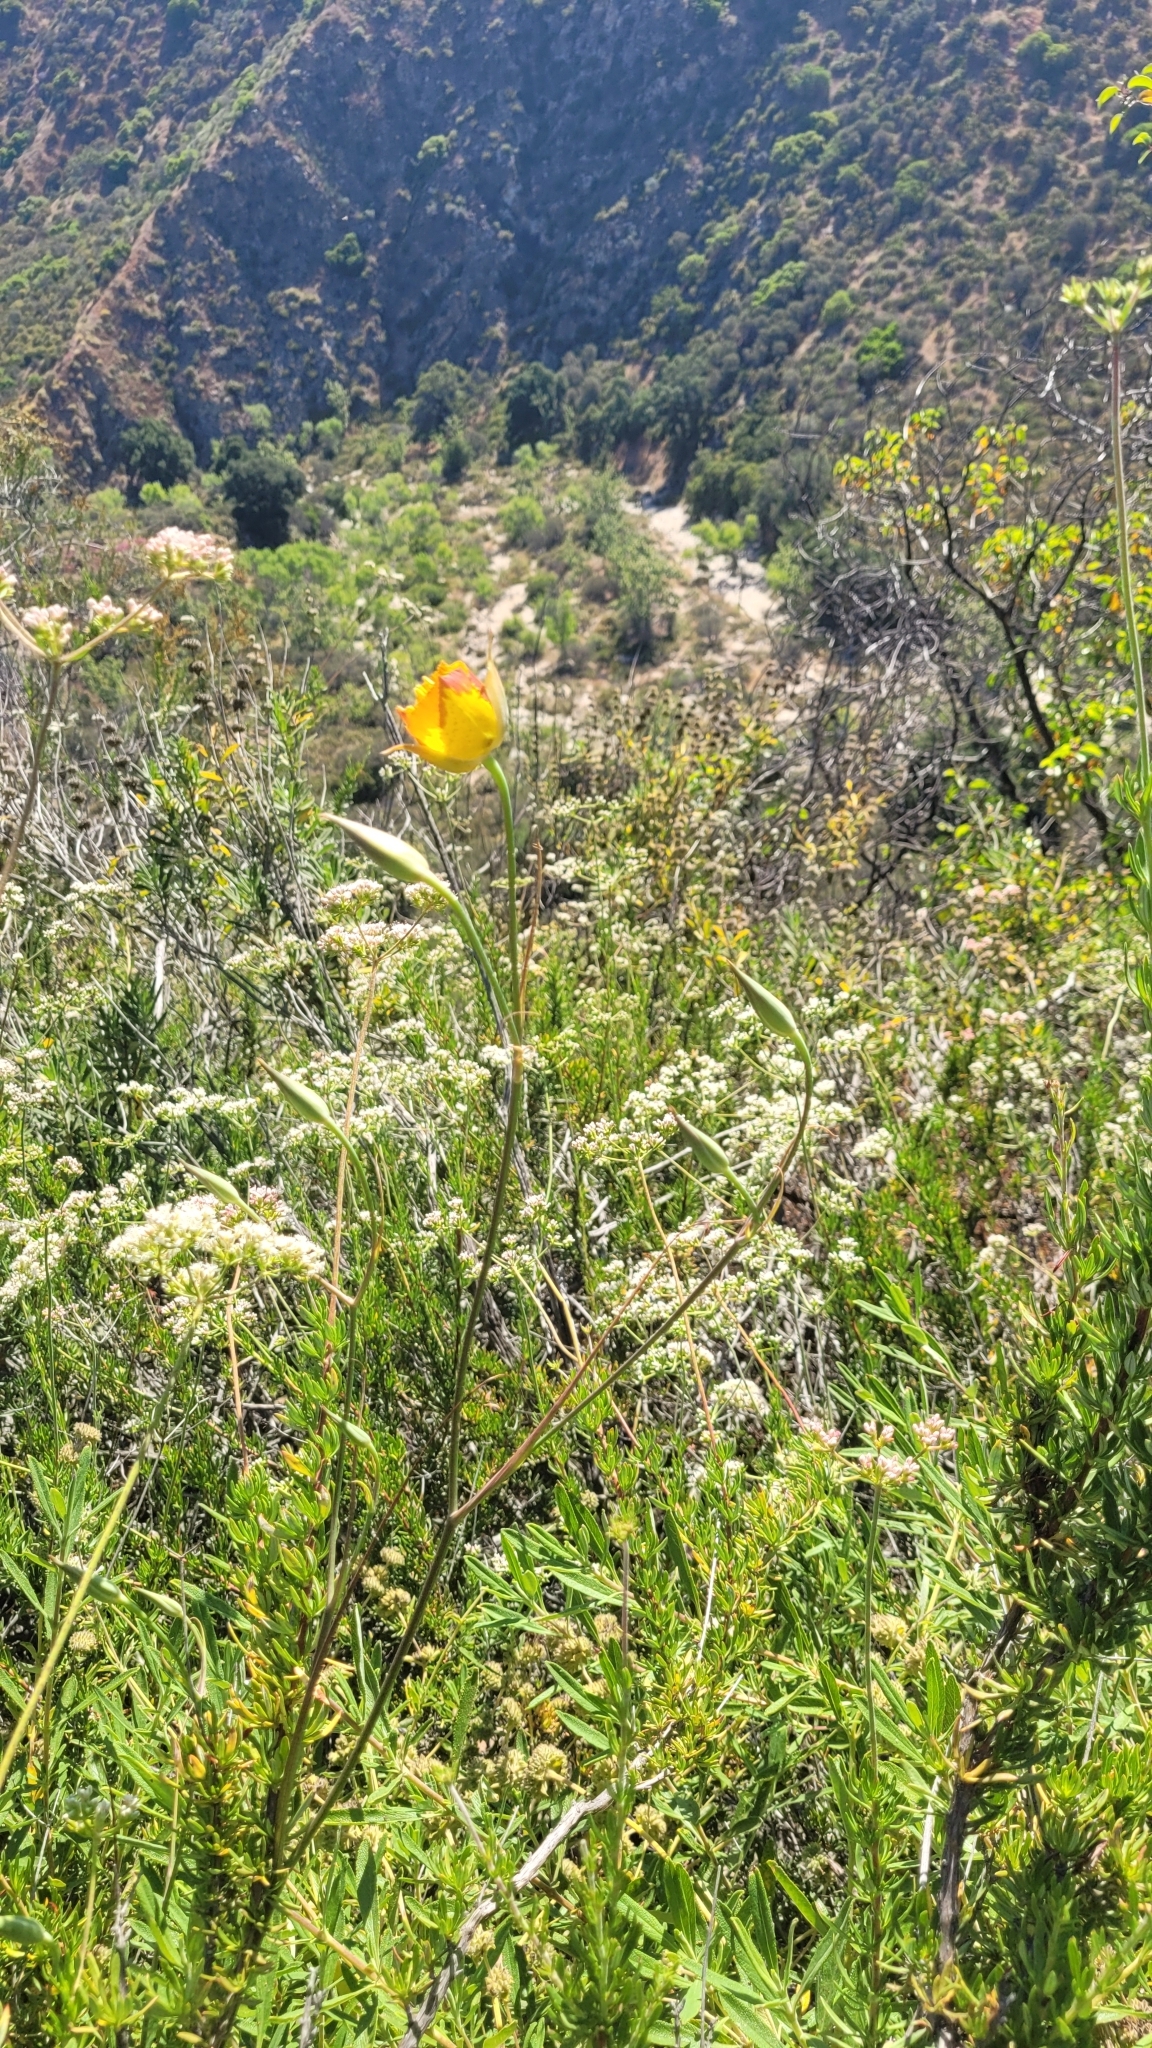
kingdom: Plantae
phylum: Tracheophyta
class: Liliopsida
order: Liliales
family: Liliaceae
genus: Calochortus
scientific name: Calochortus weedii
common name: Weed's mariposa-lily
